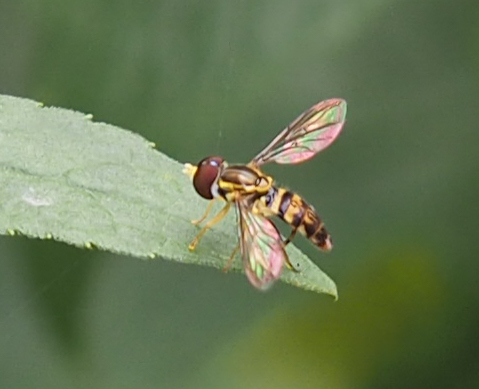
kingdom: Animalia
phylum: Arthropoda
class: Insecta
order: Diptera
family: Syrphidae
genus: Toxomerus
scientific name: Toxomerus geminatus
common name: Eastern calligrapher
